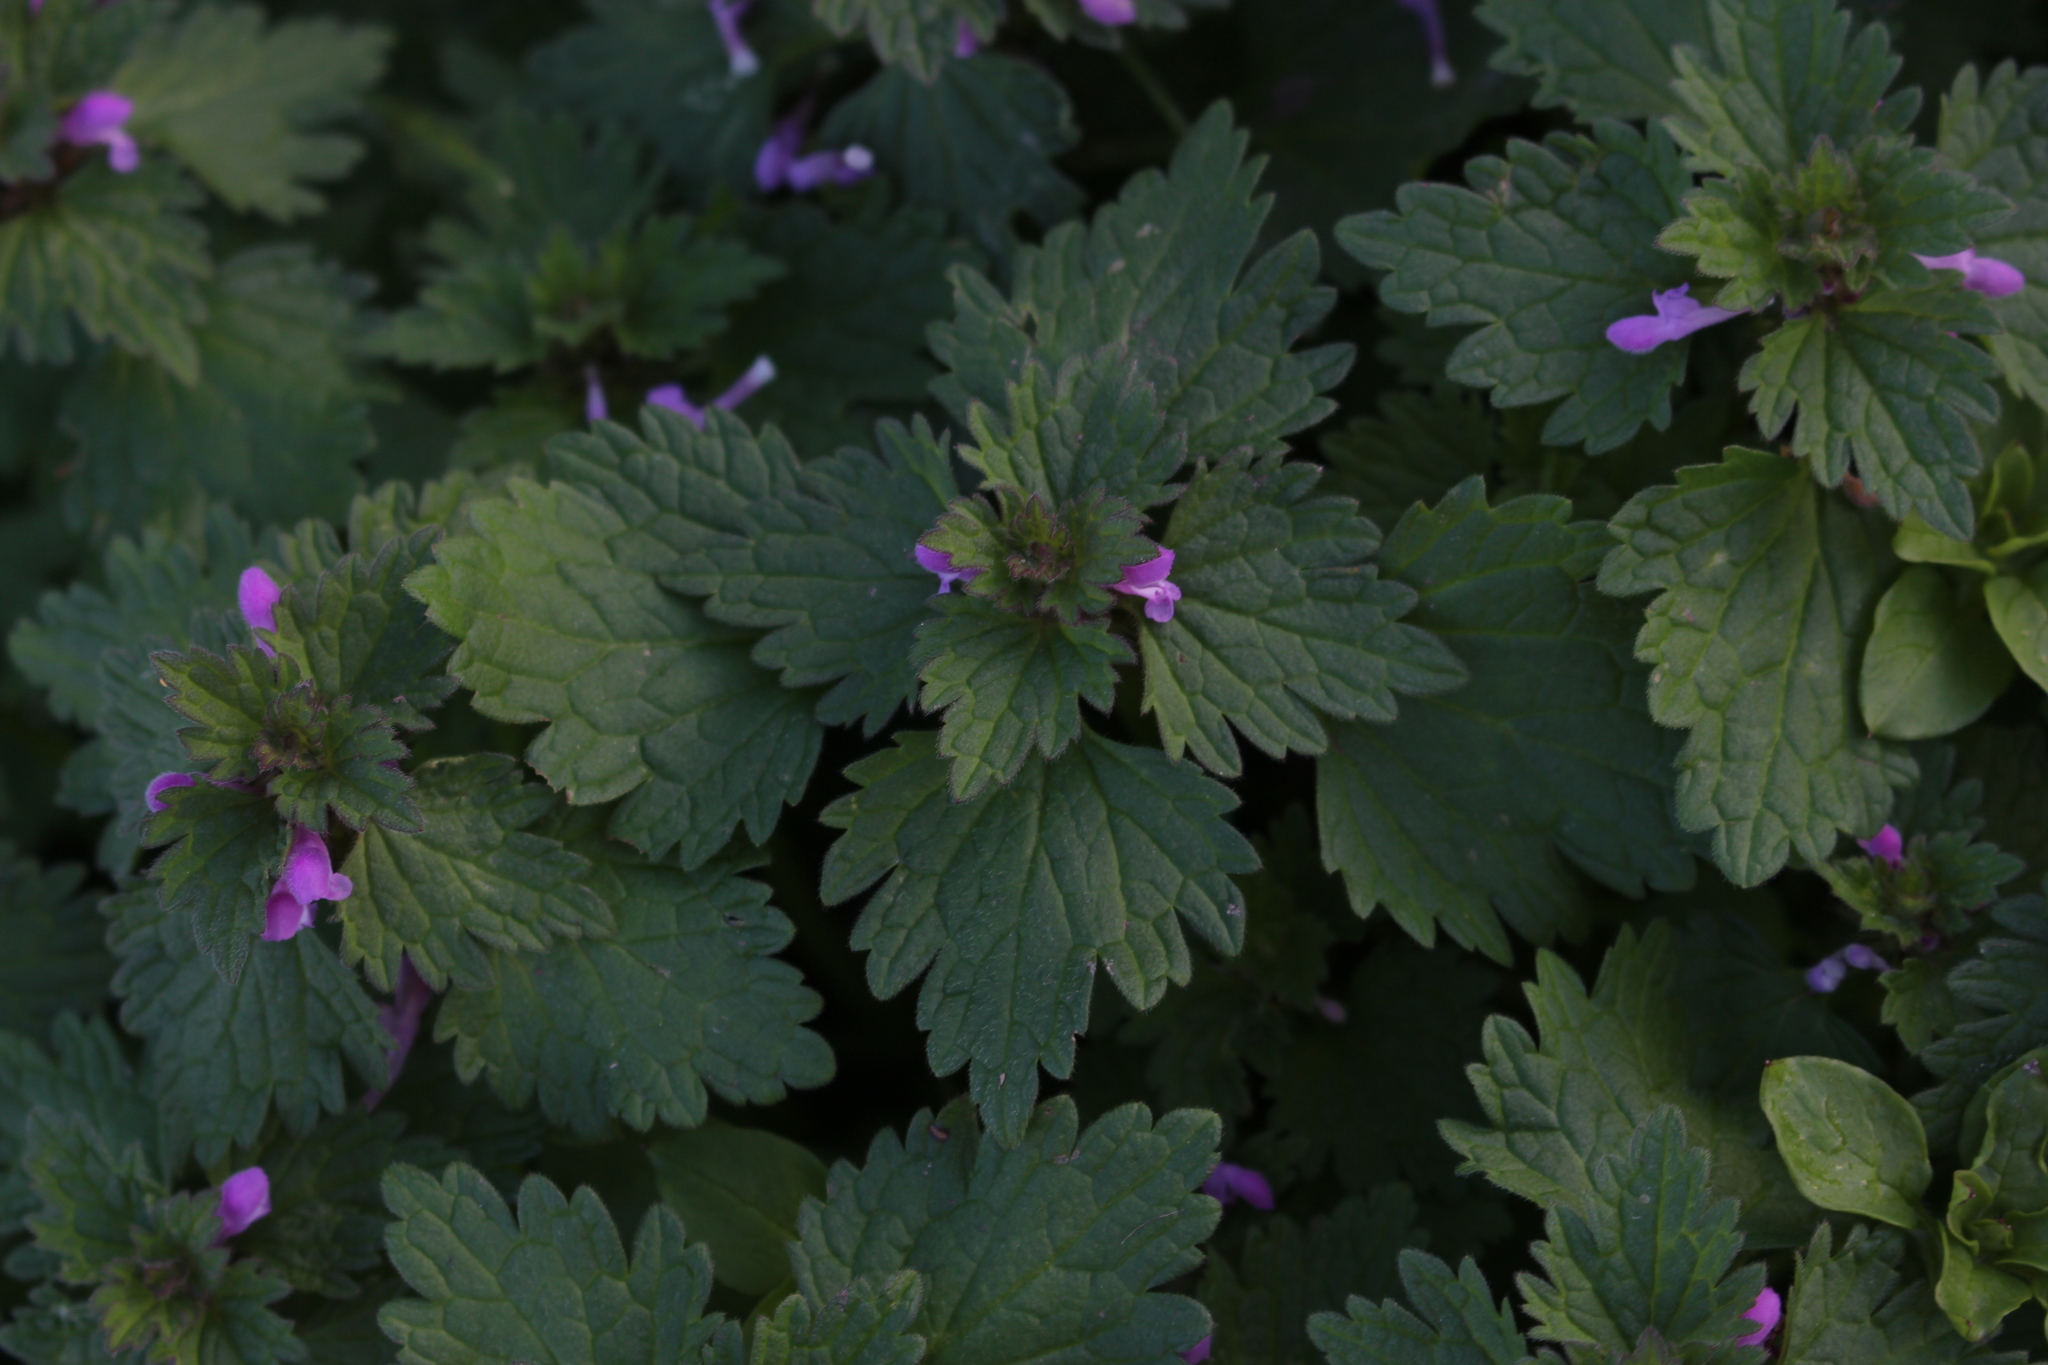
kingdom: Plantae
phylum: Tracheophyta
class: Magnoliopsida
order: Lamiales
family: Lamiaceae
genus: Lamium
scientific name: Lamium hybridum
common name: Cut-leaved dead-nettle
